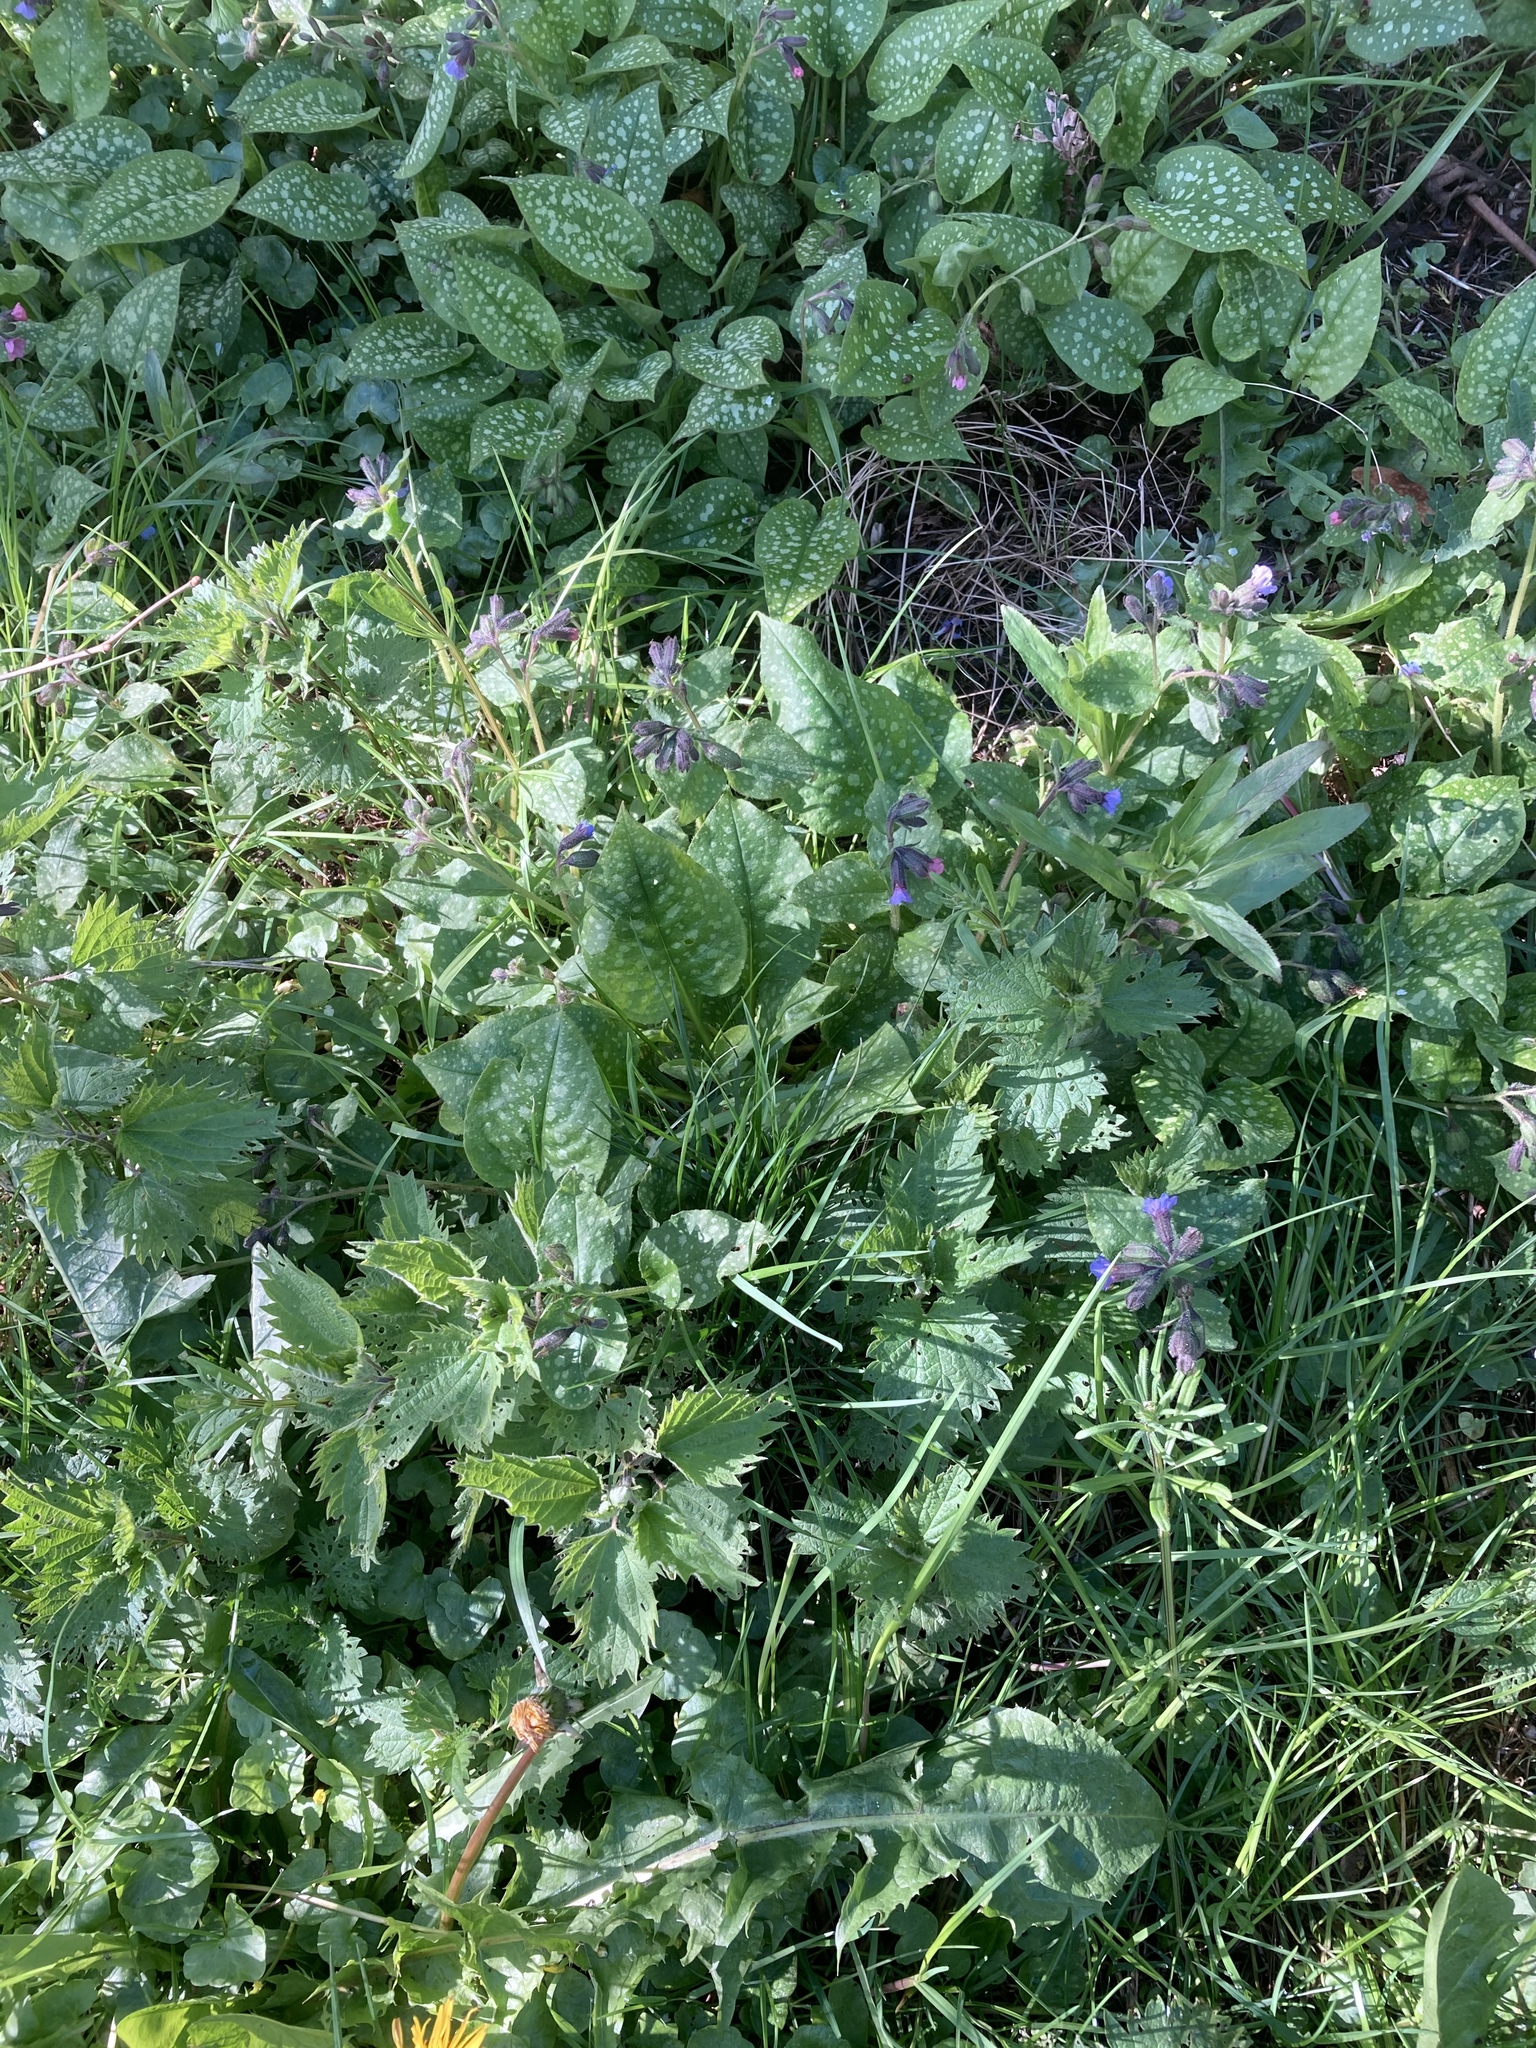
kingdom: Plantae
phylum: Tracheophyta
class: Magnoliopsida
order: Boraginales
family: Boraginaceae
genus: Pentaglottis
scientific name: Pentaglottis sempervirens
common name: Green alkanet
